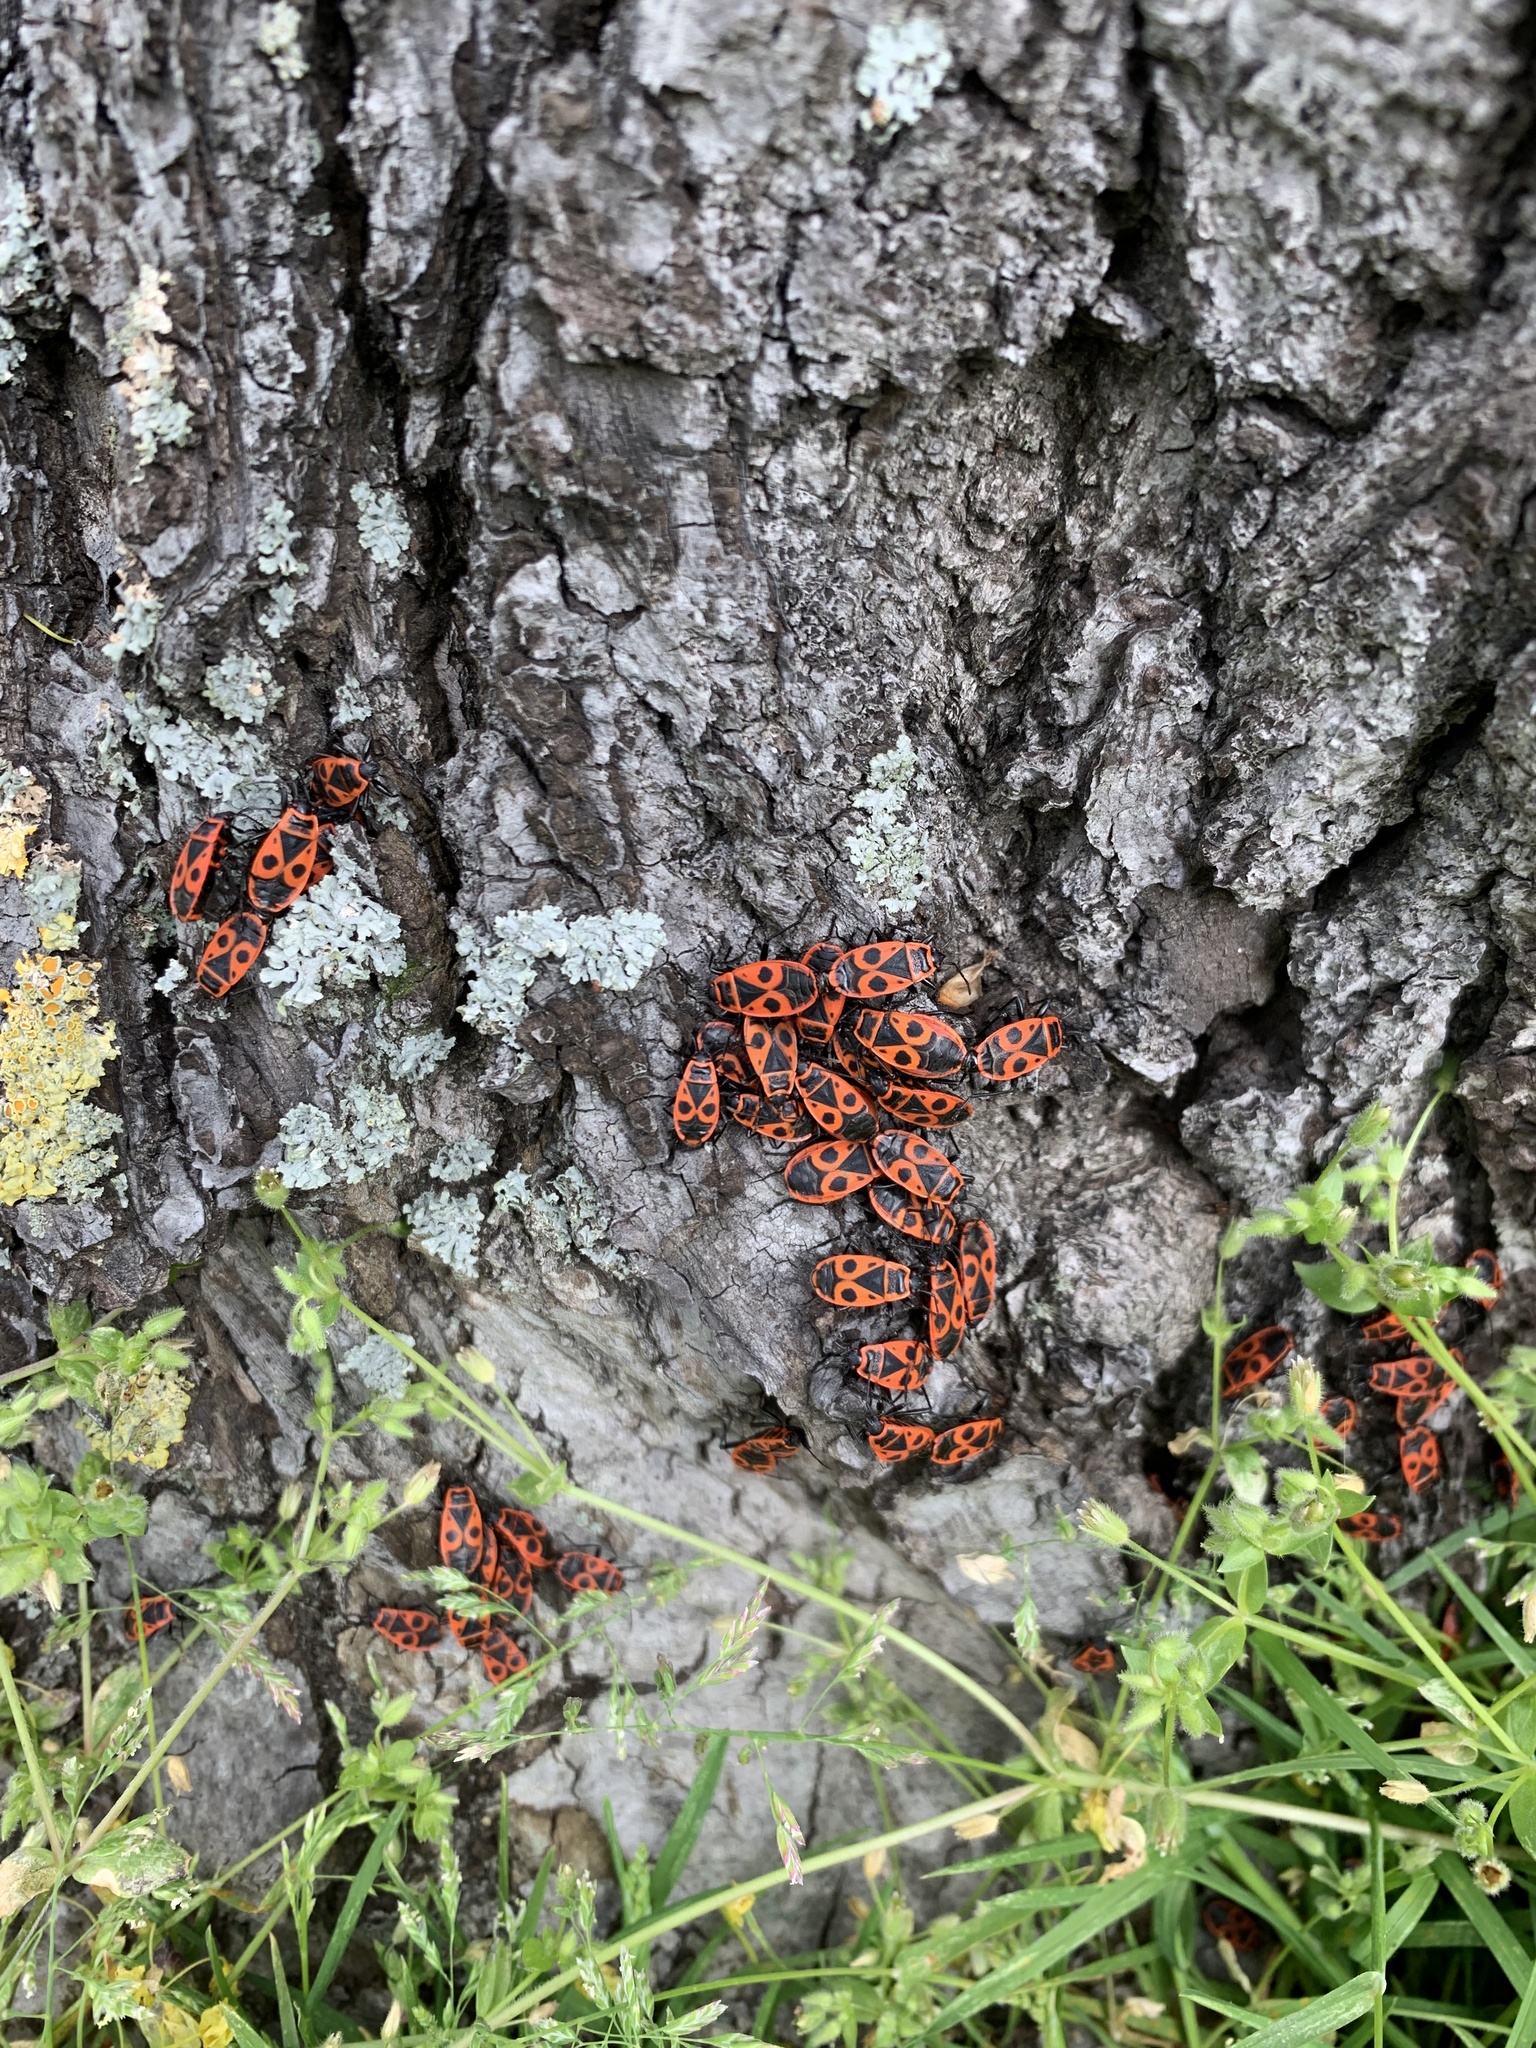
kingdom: Animalia
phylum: Arthropoda
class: Insecta
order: Hemiptera
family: Pyrrhocoridae
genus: Pyrrhocoris
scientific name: Pyrrhocoris apterus
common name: Firebug
